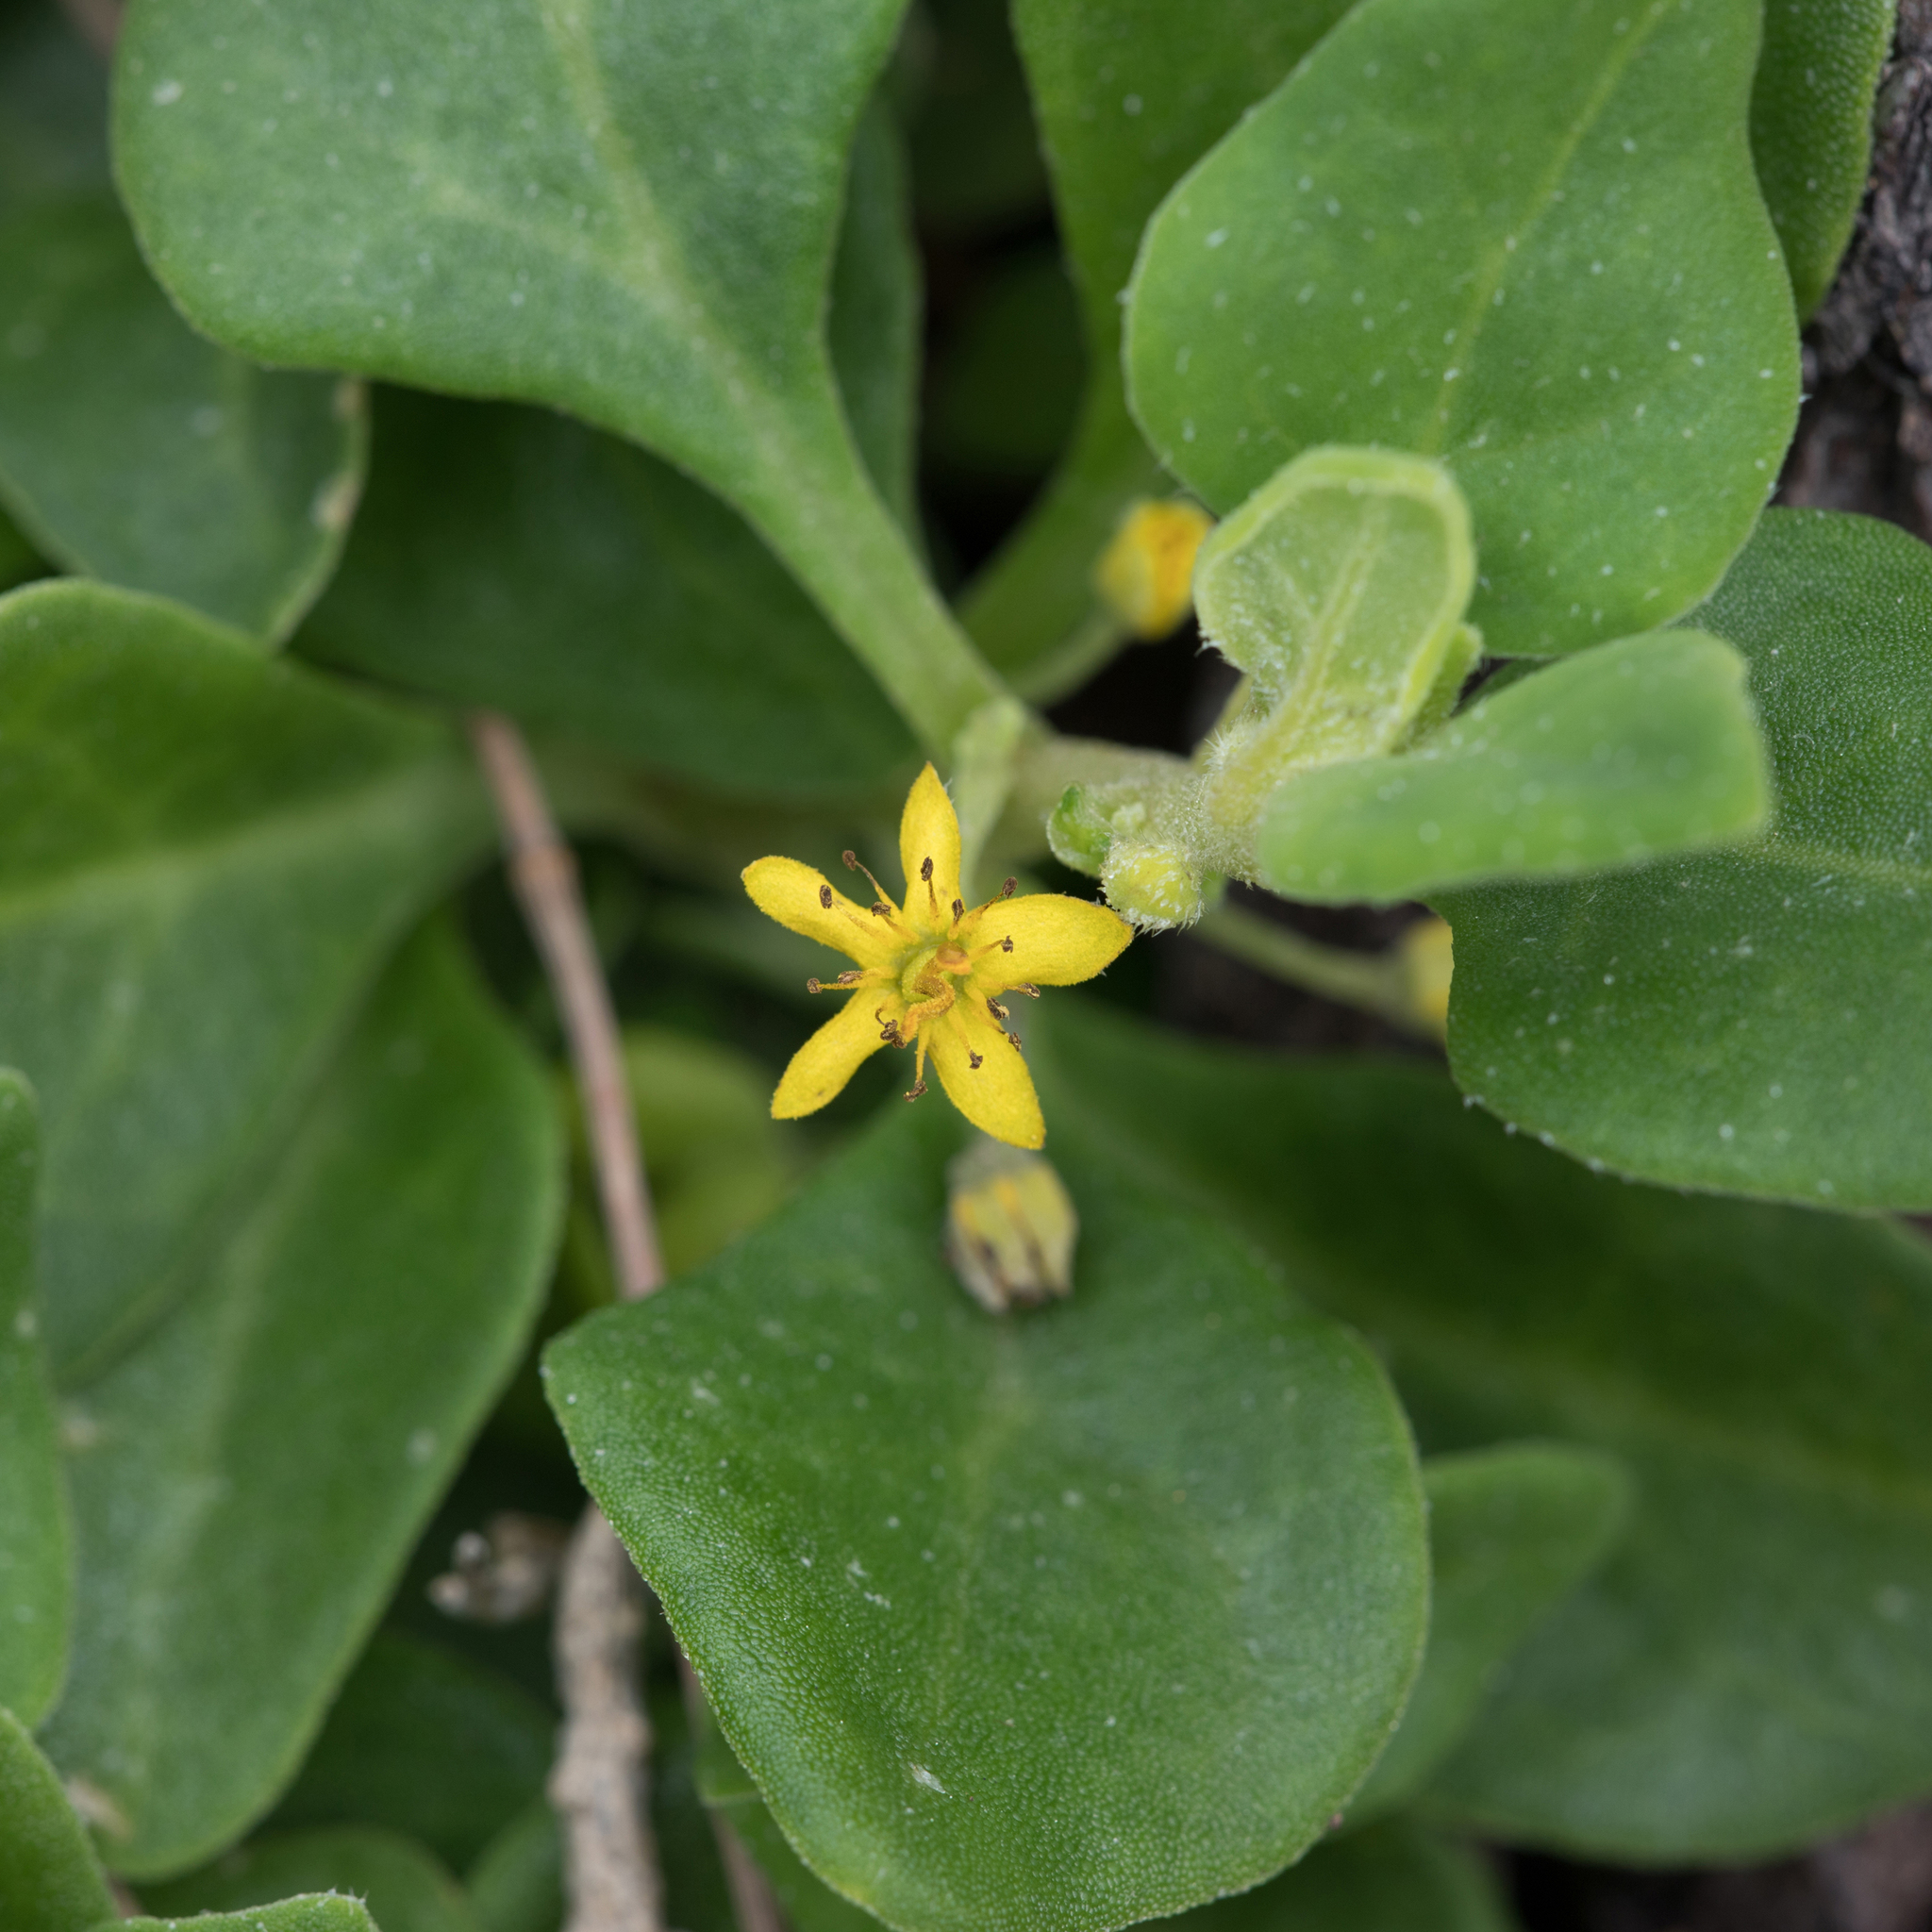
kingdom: Plantae
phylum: Tracheophyta
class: Magnoliopsida
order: Caryophyllales
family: Aizoaceae
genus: Tetragonia
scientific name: Tetragonia implexicoma
